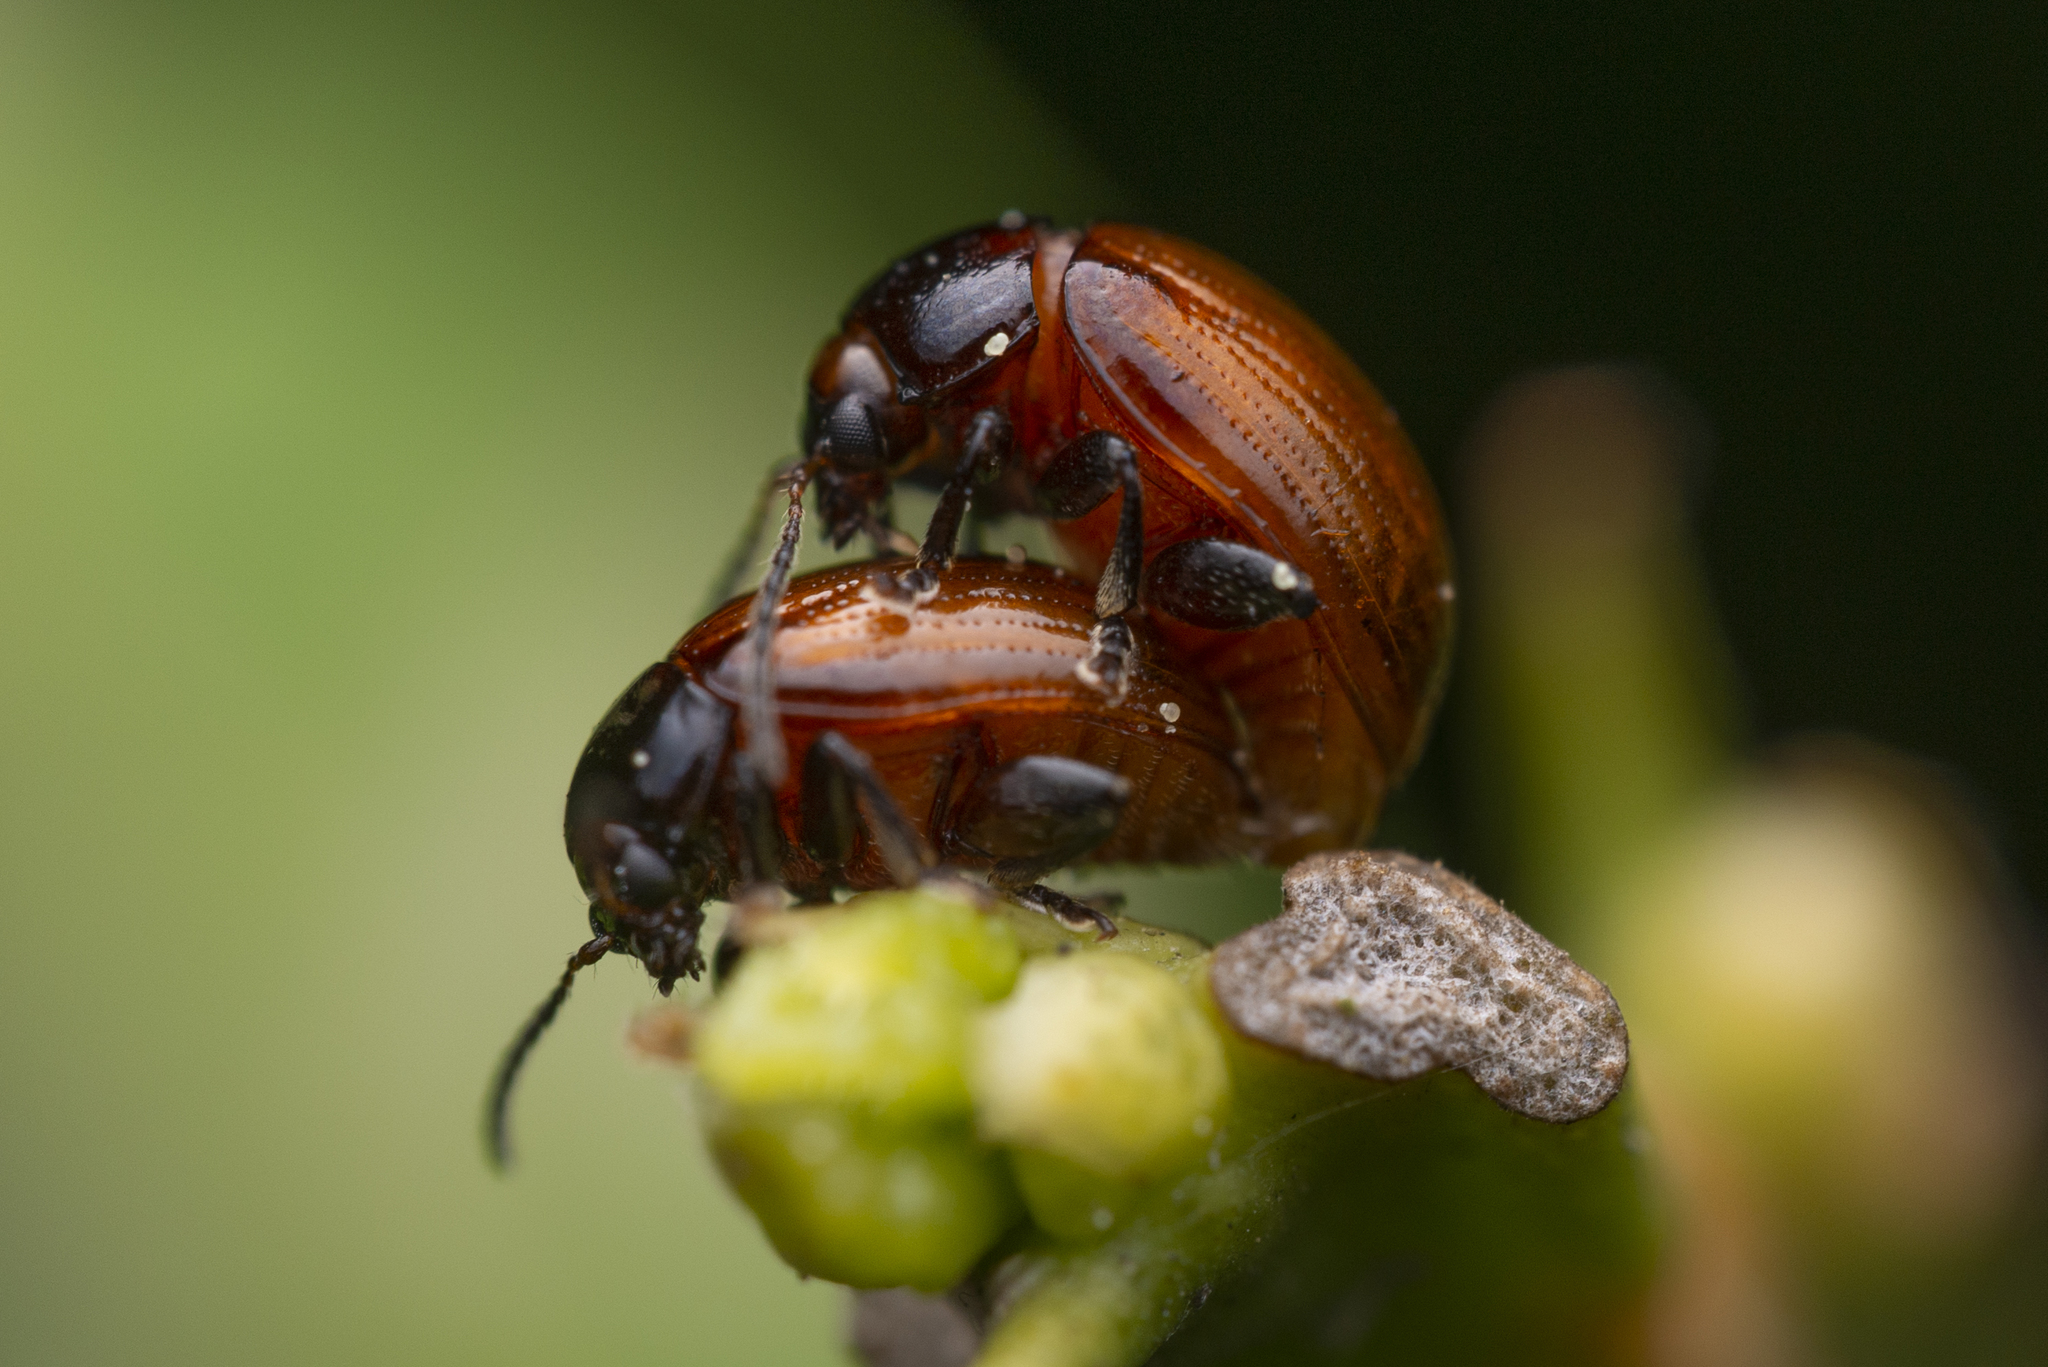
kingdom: Animalia
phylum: Arthropoda
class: Insecta
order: Coleoptera
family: Chrysomelidae
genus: Podagricomela
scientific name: Podagricomela nigricollis
